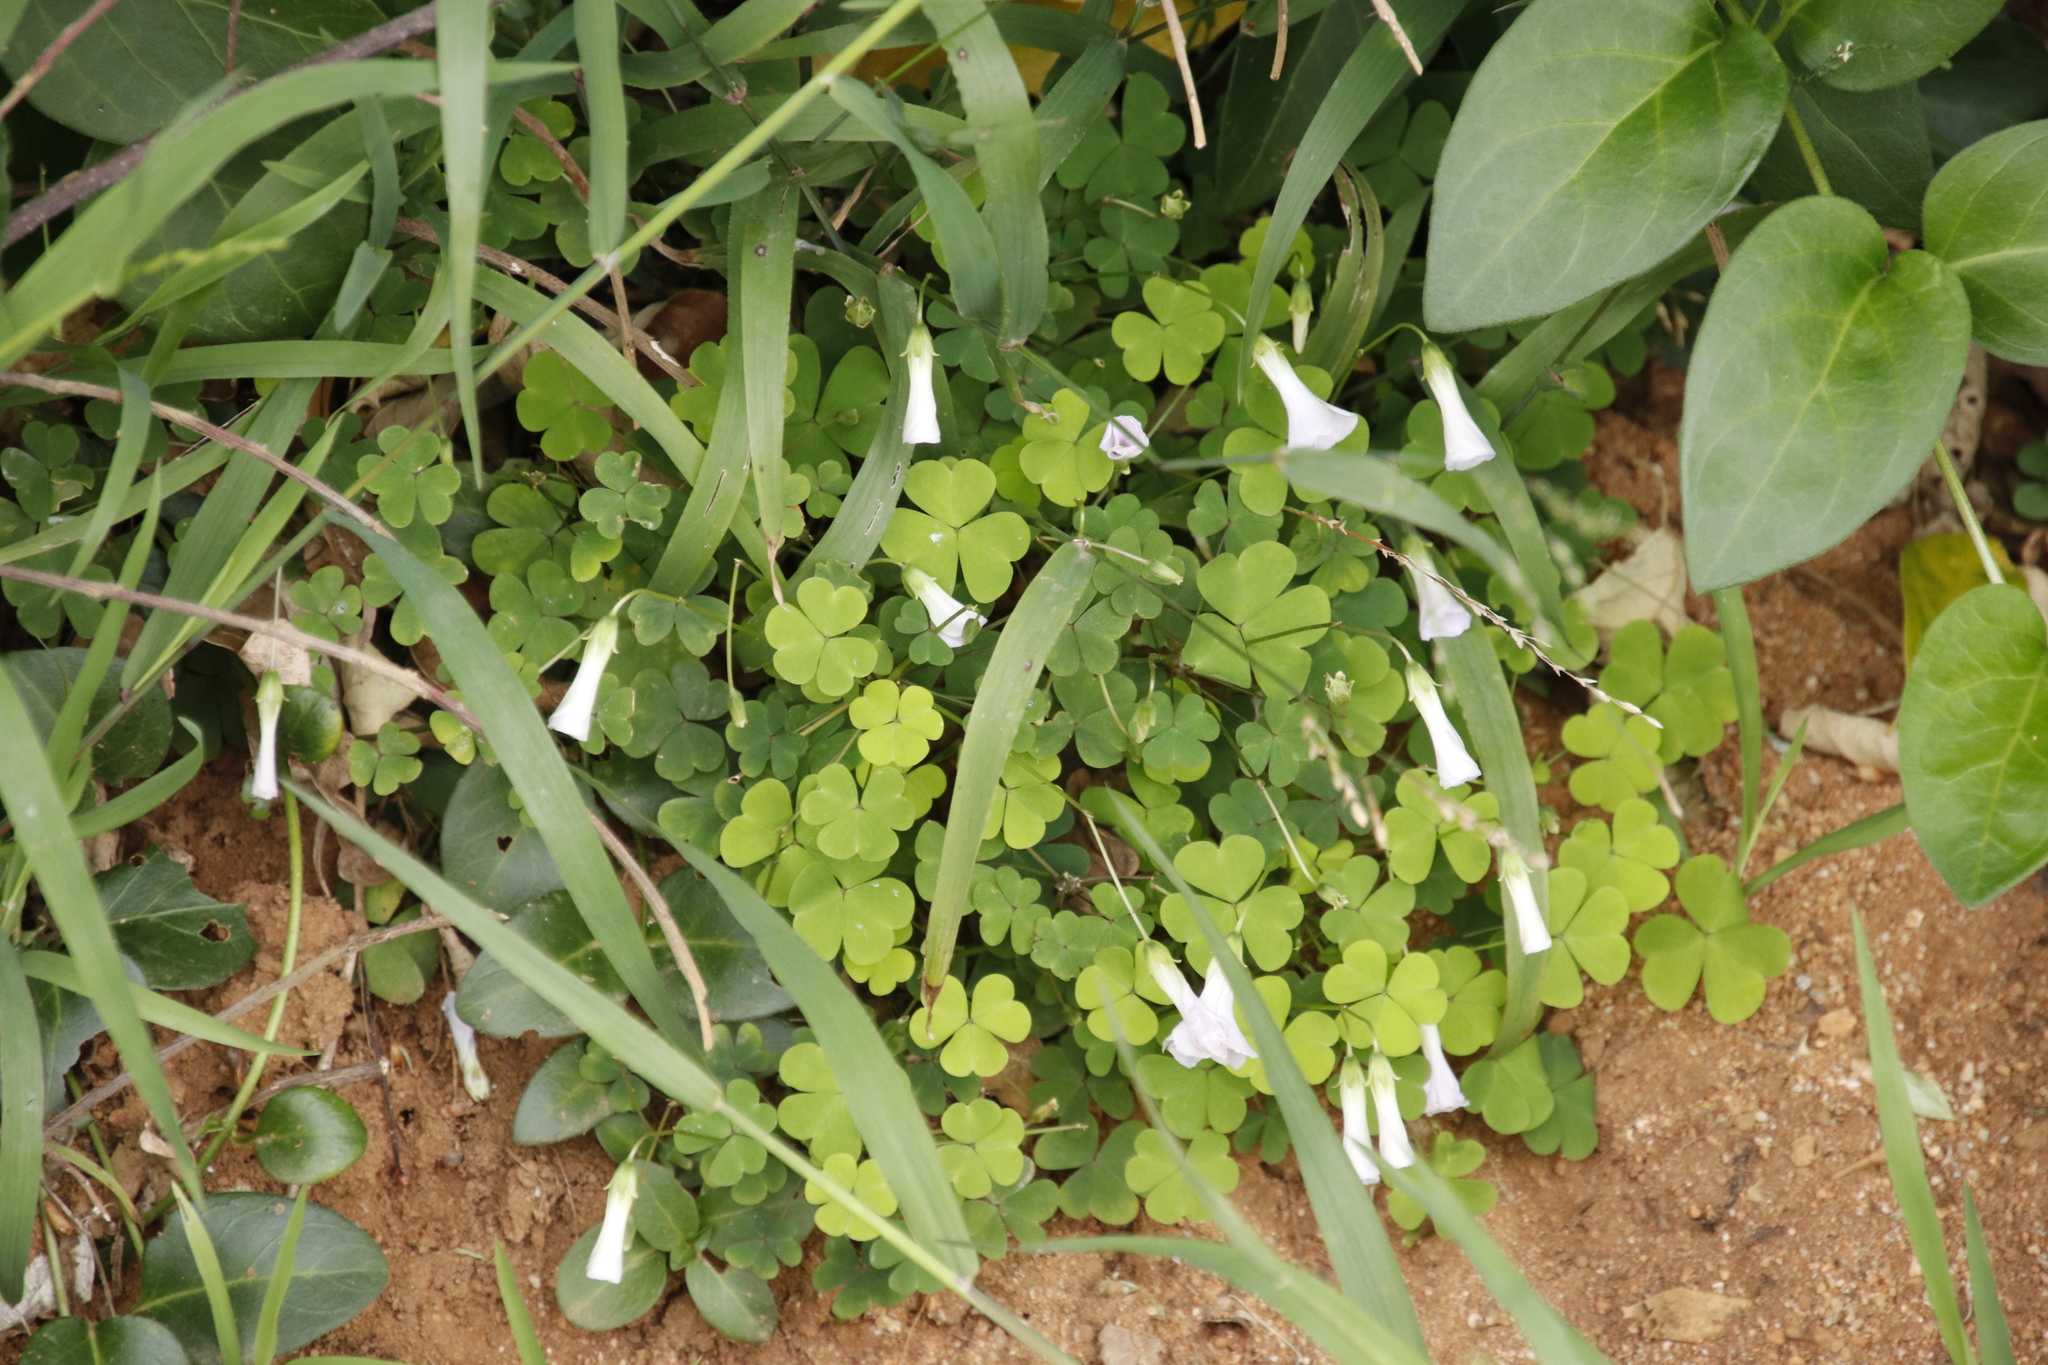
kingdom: Plantae
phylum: Tracheophyta
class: Magnoliopsida
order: Oxalidales
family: Oxalidaceae
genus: Oxalis
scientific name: Oxalis incarnata
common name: Pale pink-sorrel
